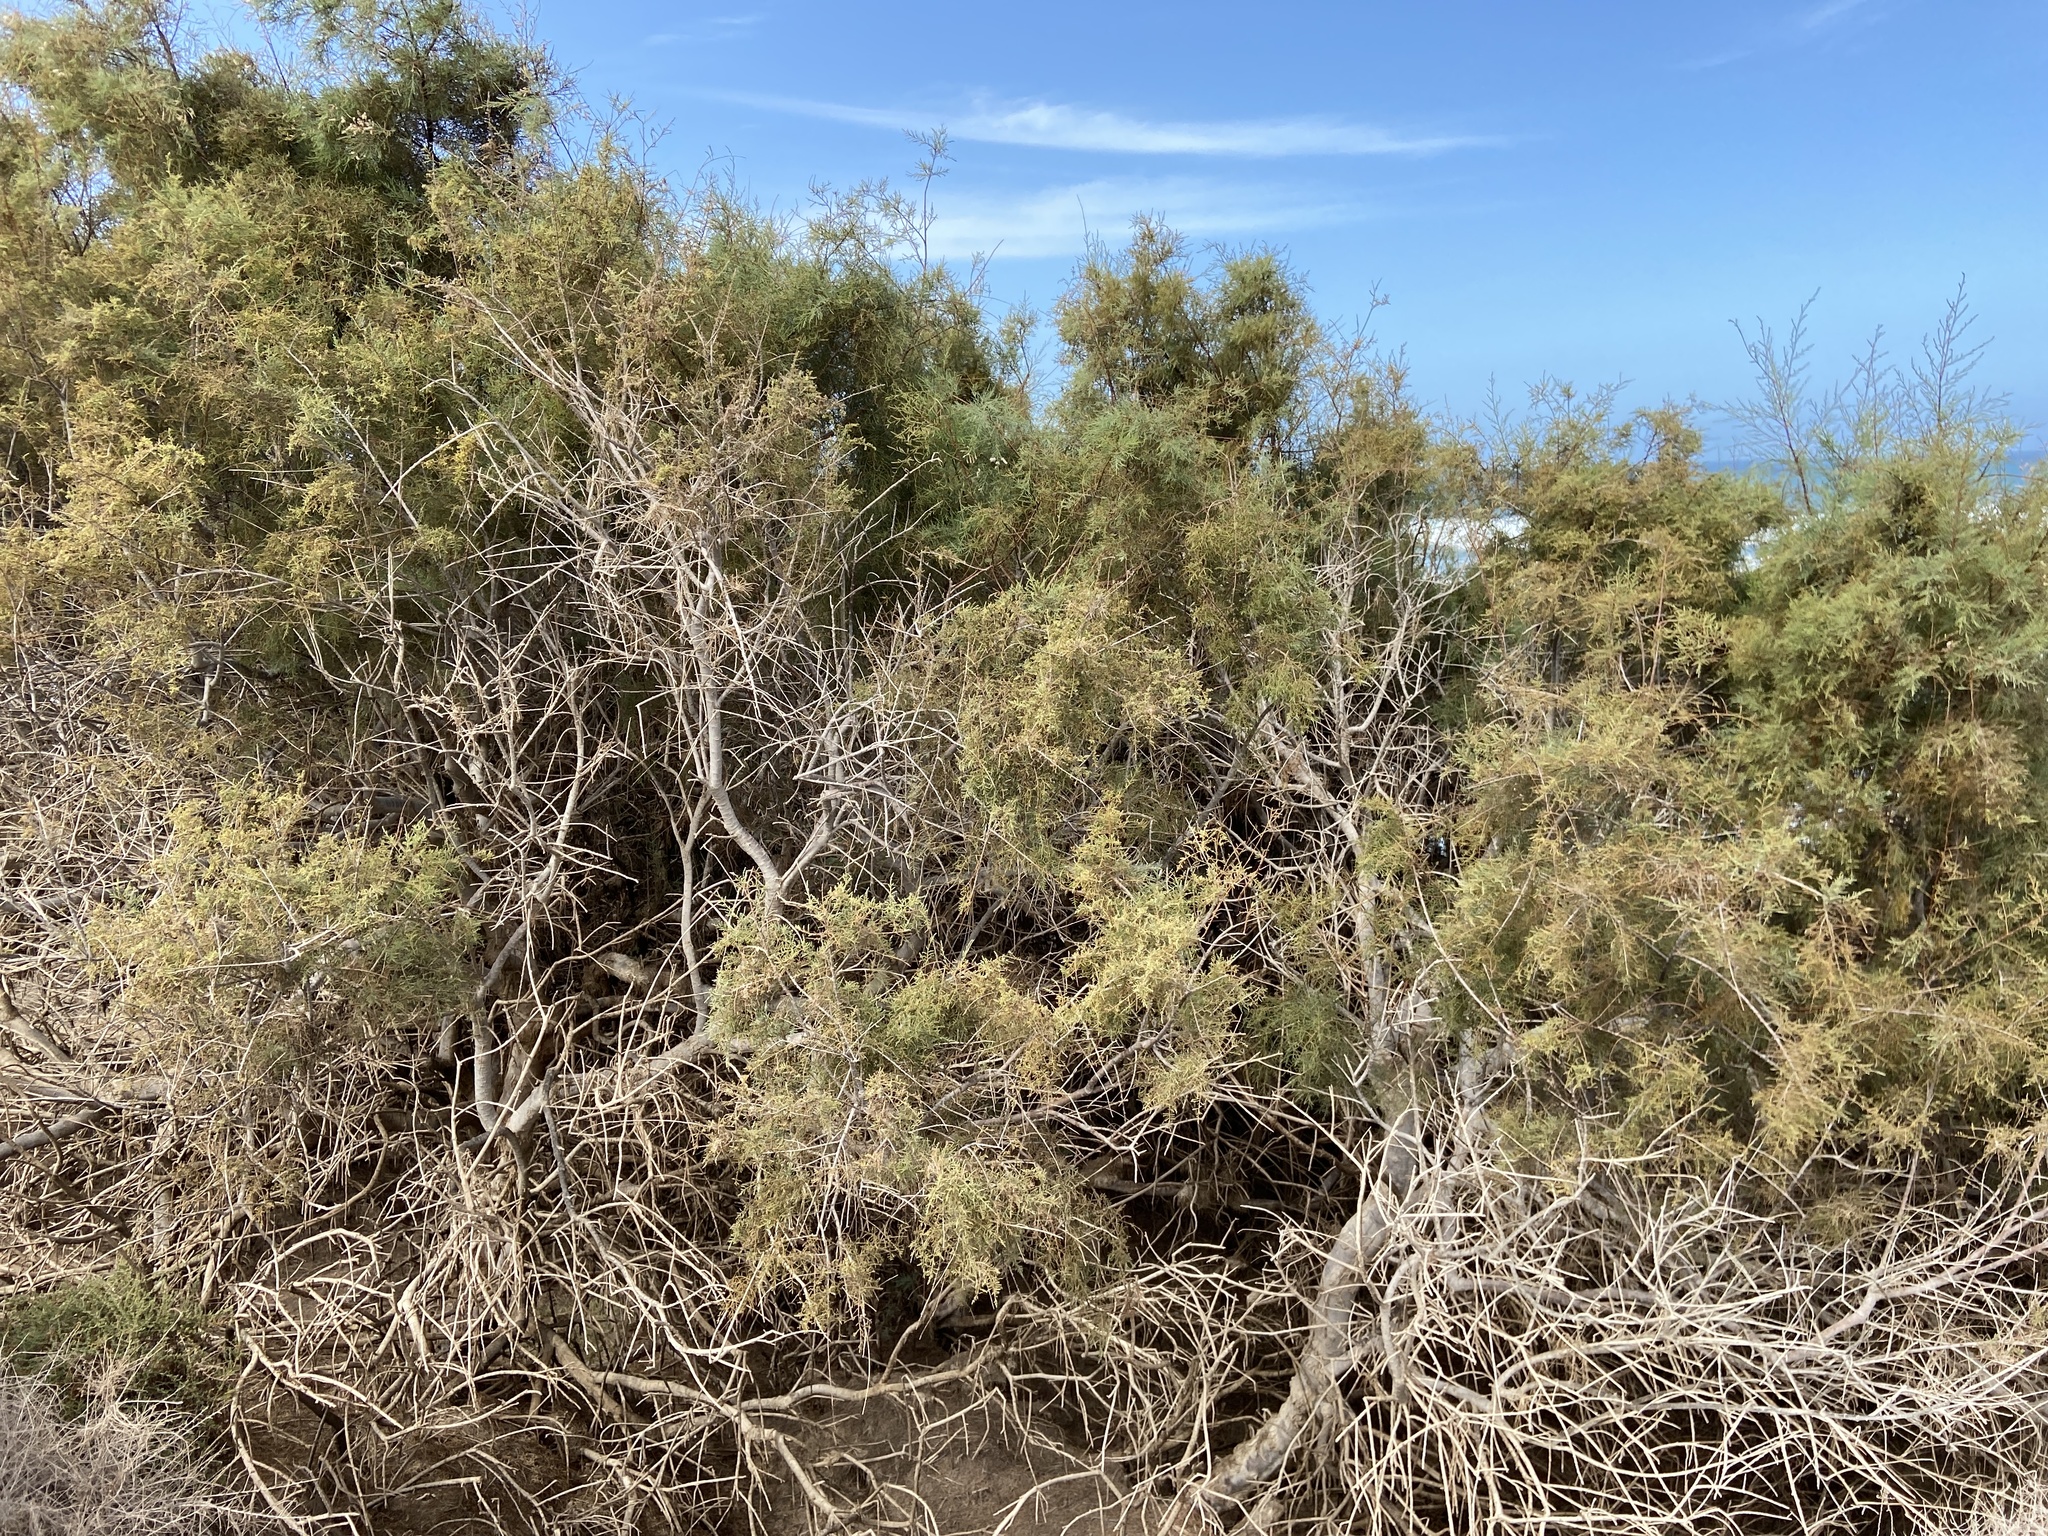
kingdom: Plantae
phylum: Tracheophyta
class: Magnoliopsida
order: Caryophyllales
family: Tamaricaceae
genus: Tamarix
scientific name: Tamarix canariensis
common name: Canary island tamarisk
